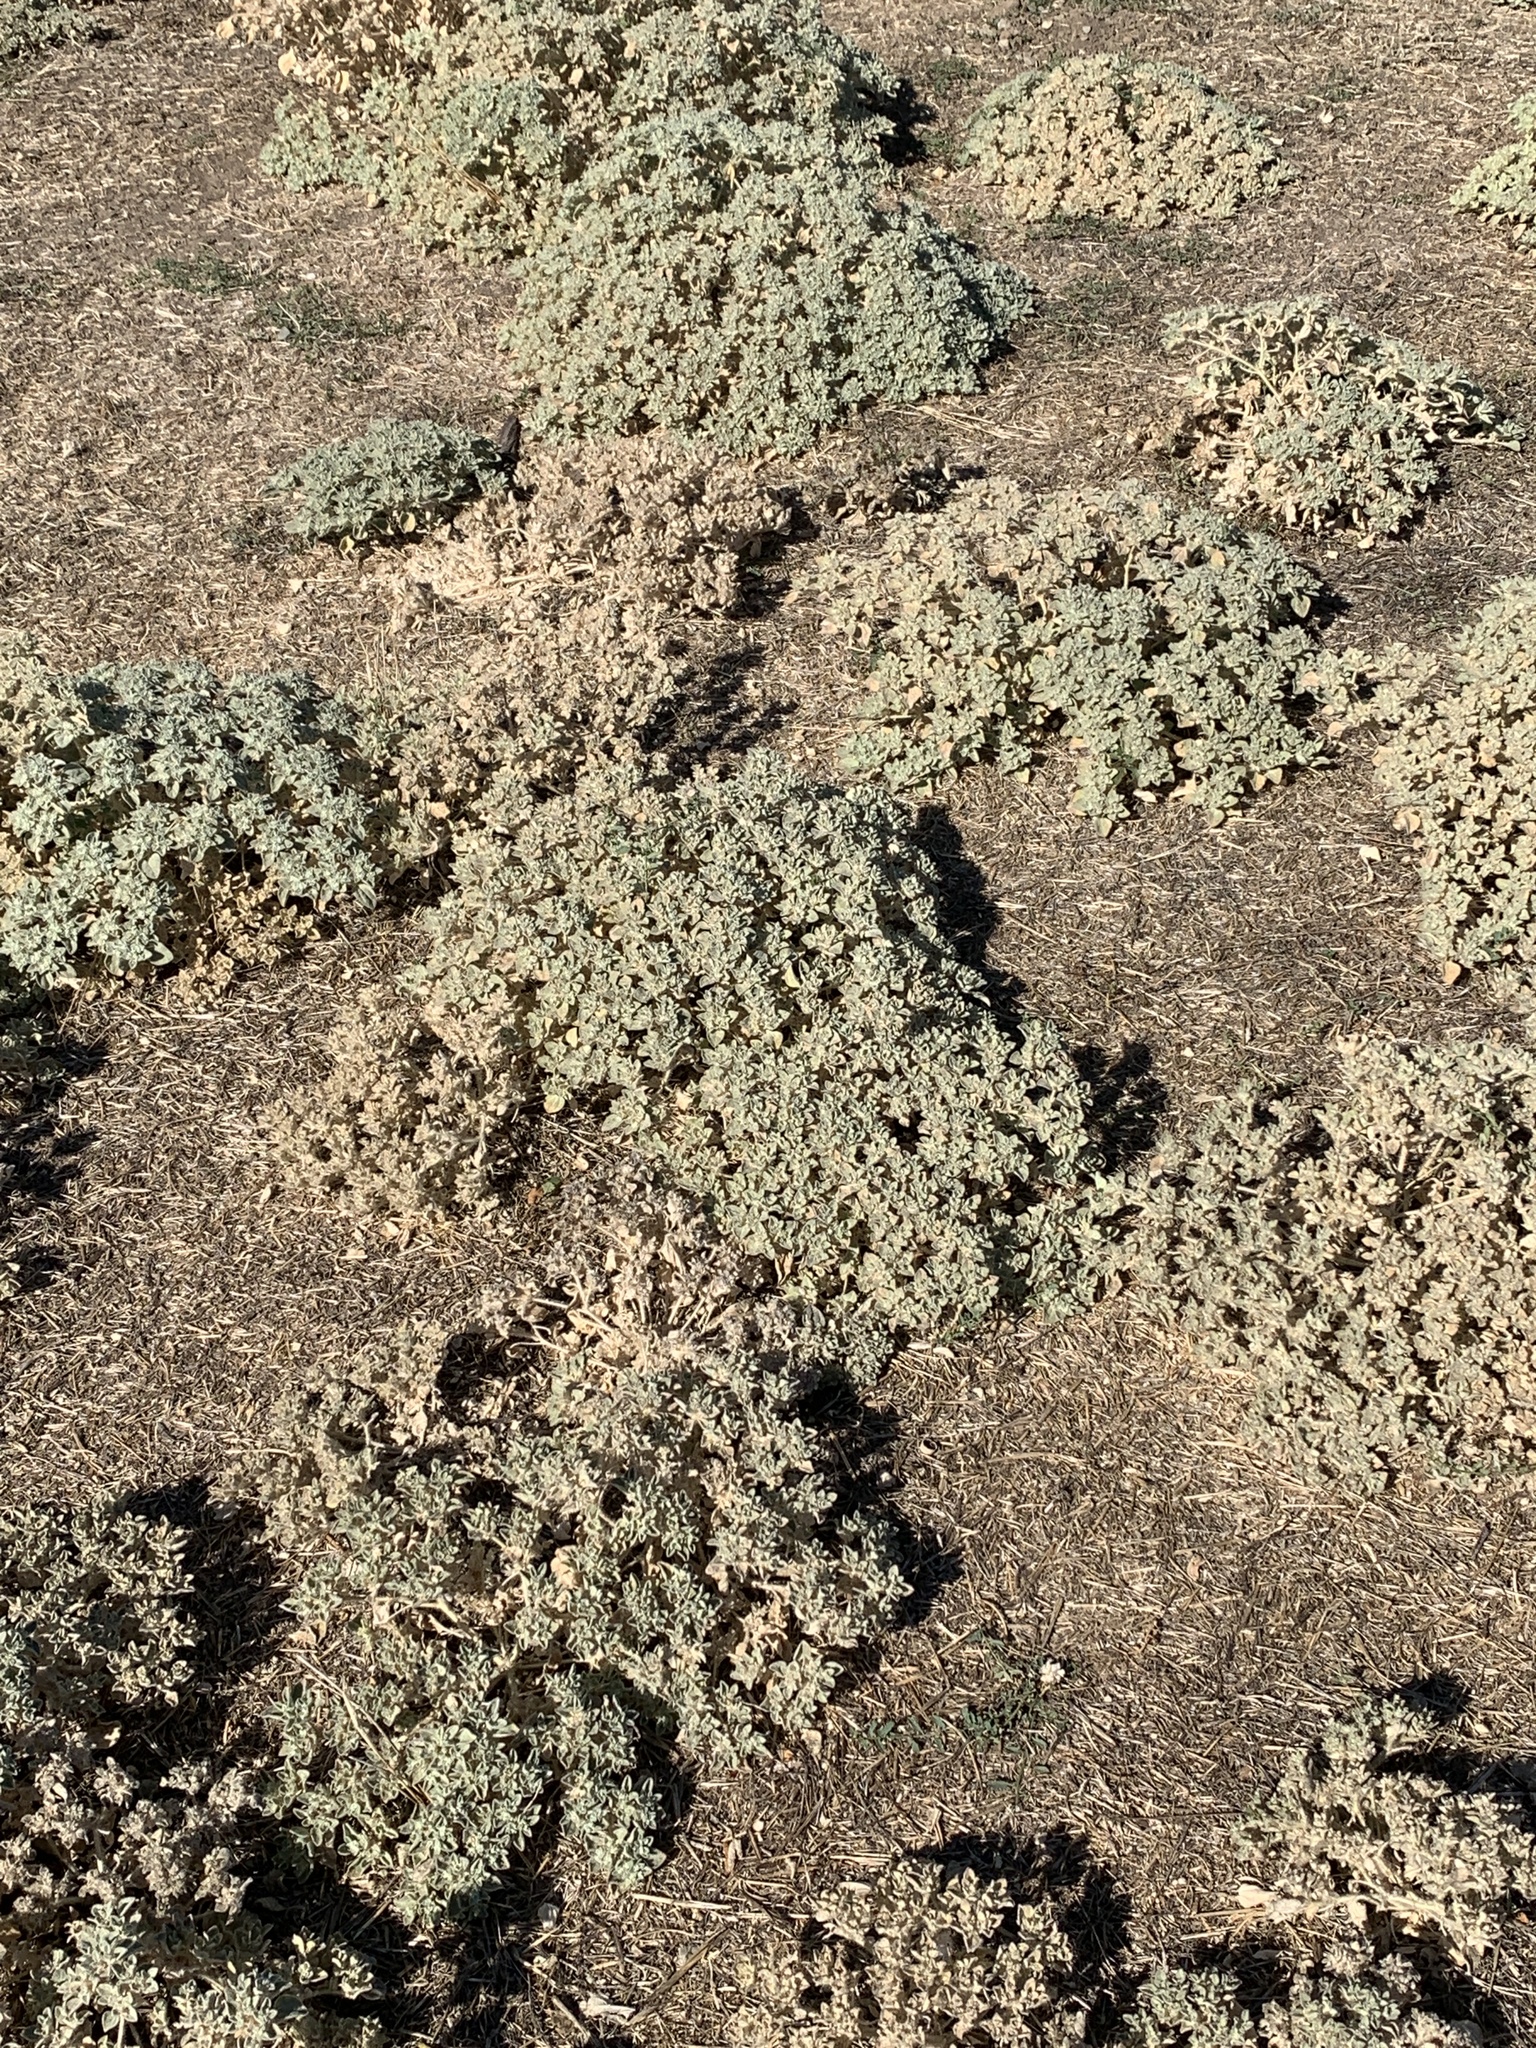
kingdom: Plantae
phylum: Tracheophyta
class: Magnoliopsida
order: Malpighiales
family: Euphorbiaceae
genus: Croton
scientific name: Croton setiger
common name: Dove weed
